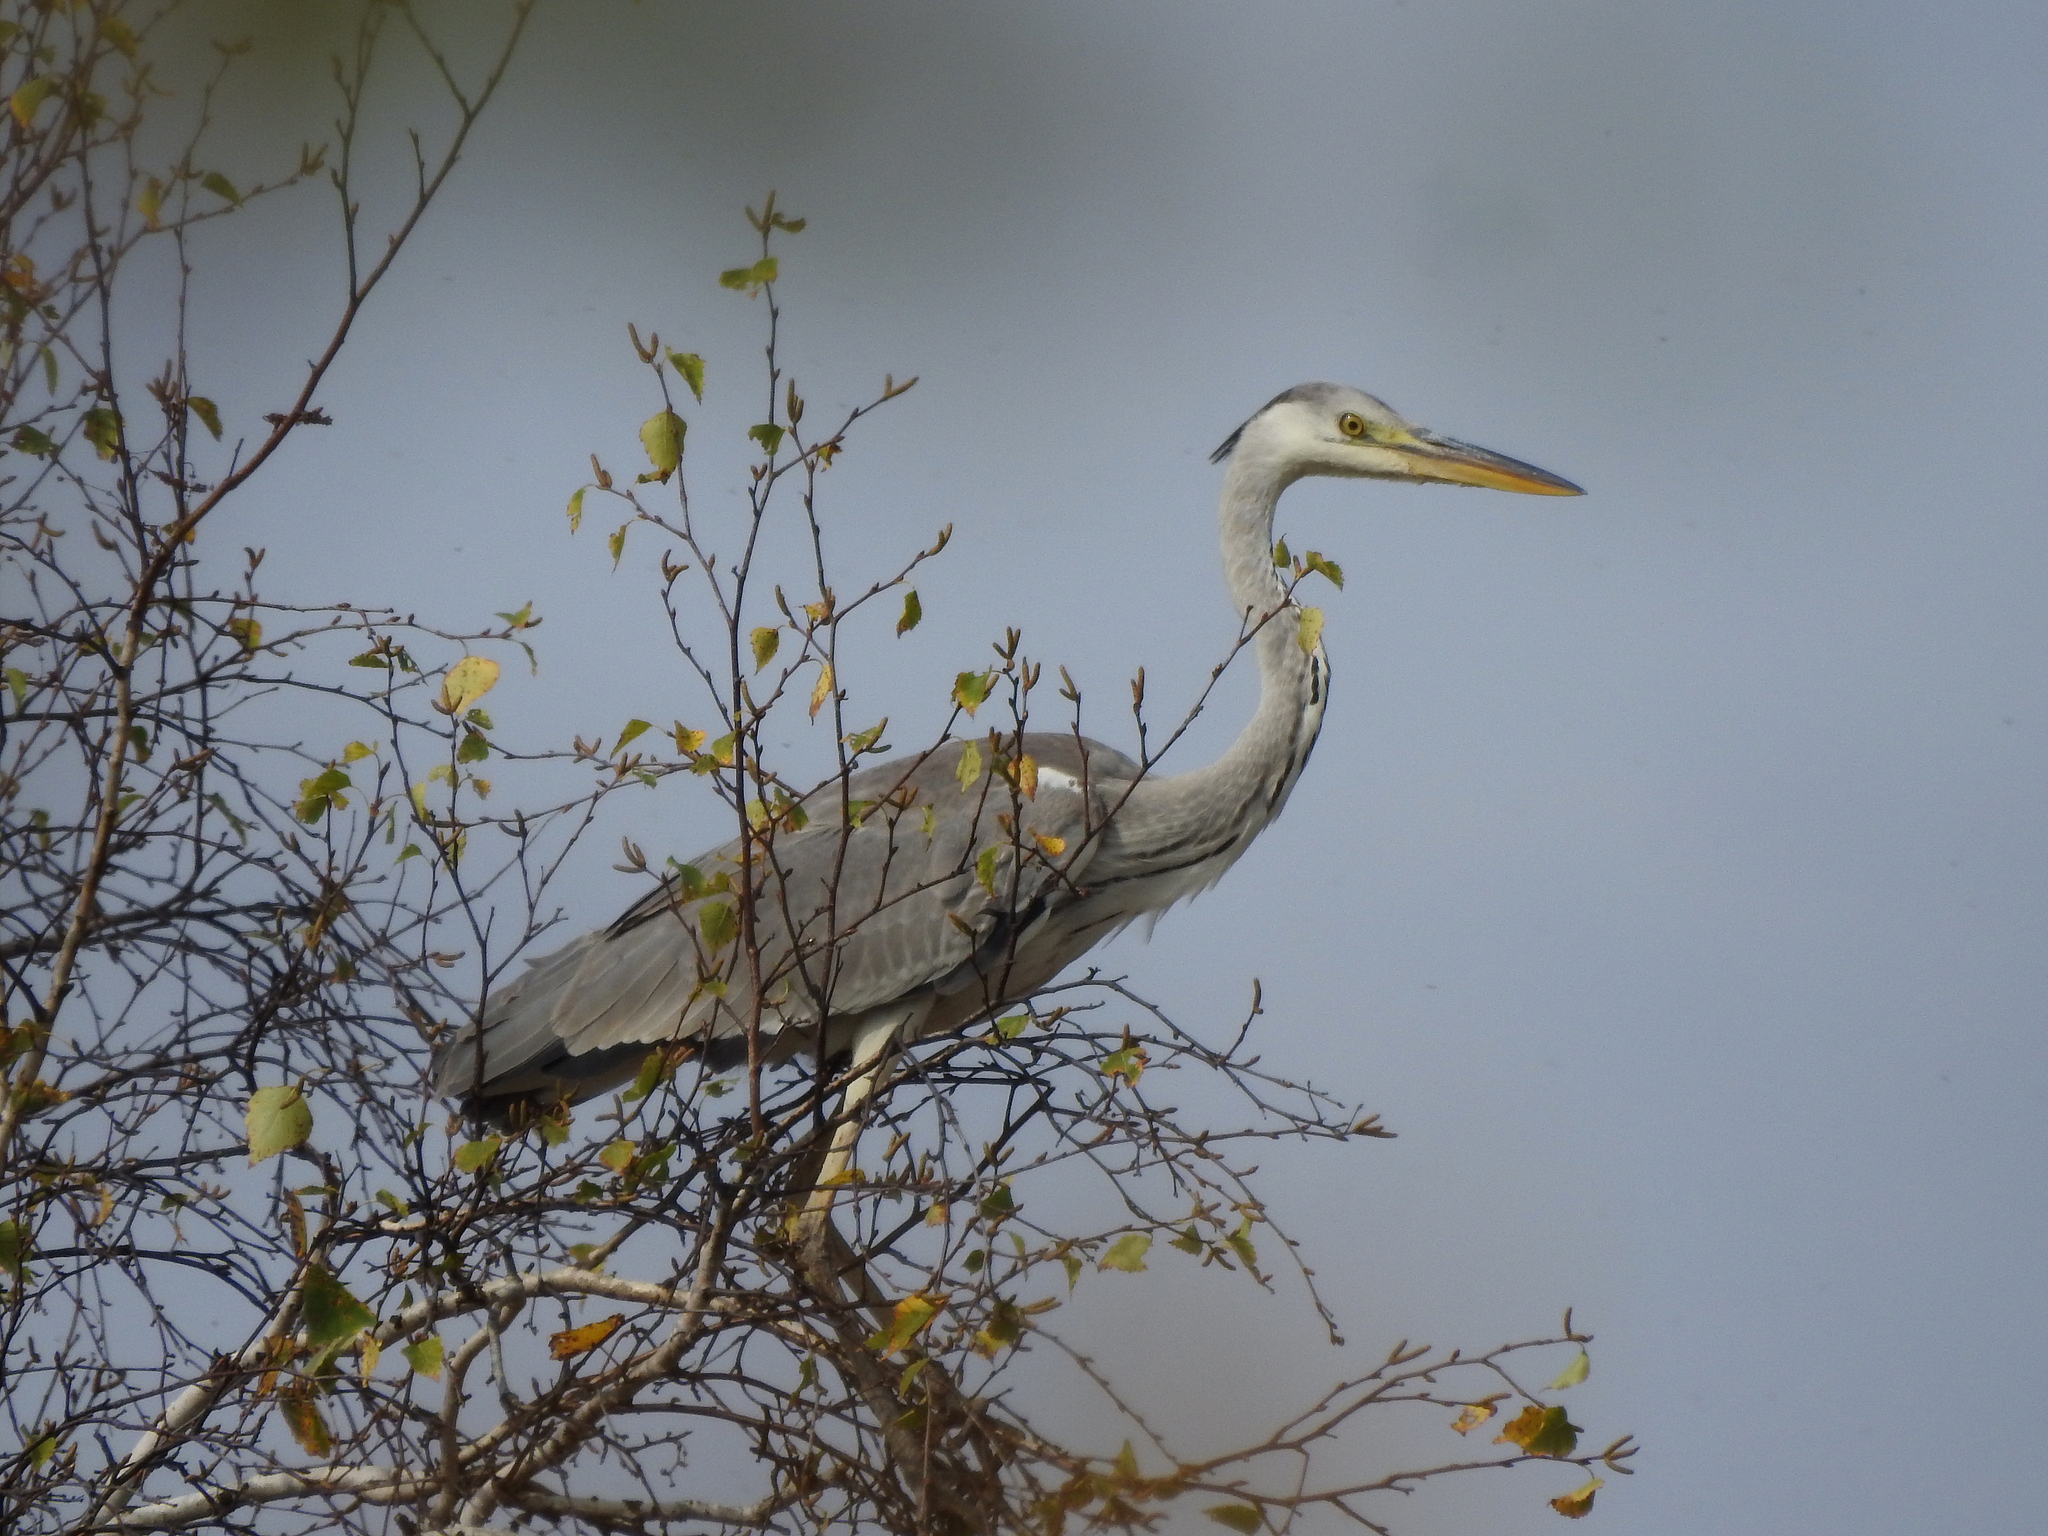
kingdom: Animalia
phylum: Chordata
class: Aves
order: Pelecaniformes
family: Ardeidae
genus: Ardea
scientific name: Ardea cinerea
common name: Grey heron
